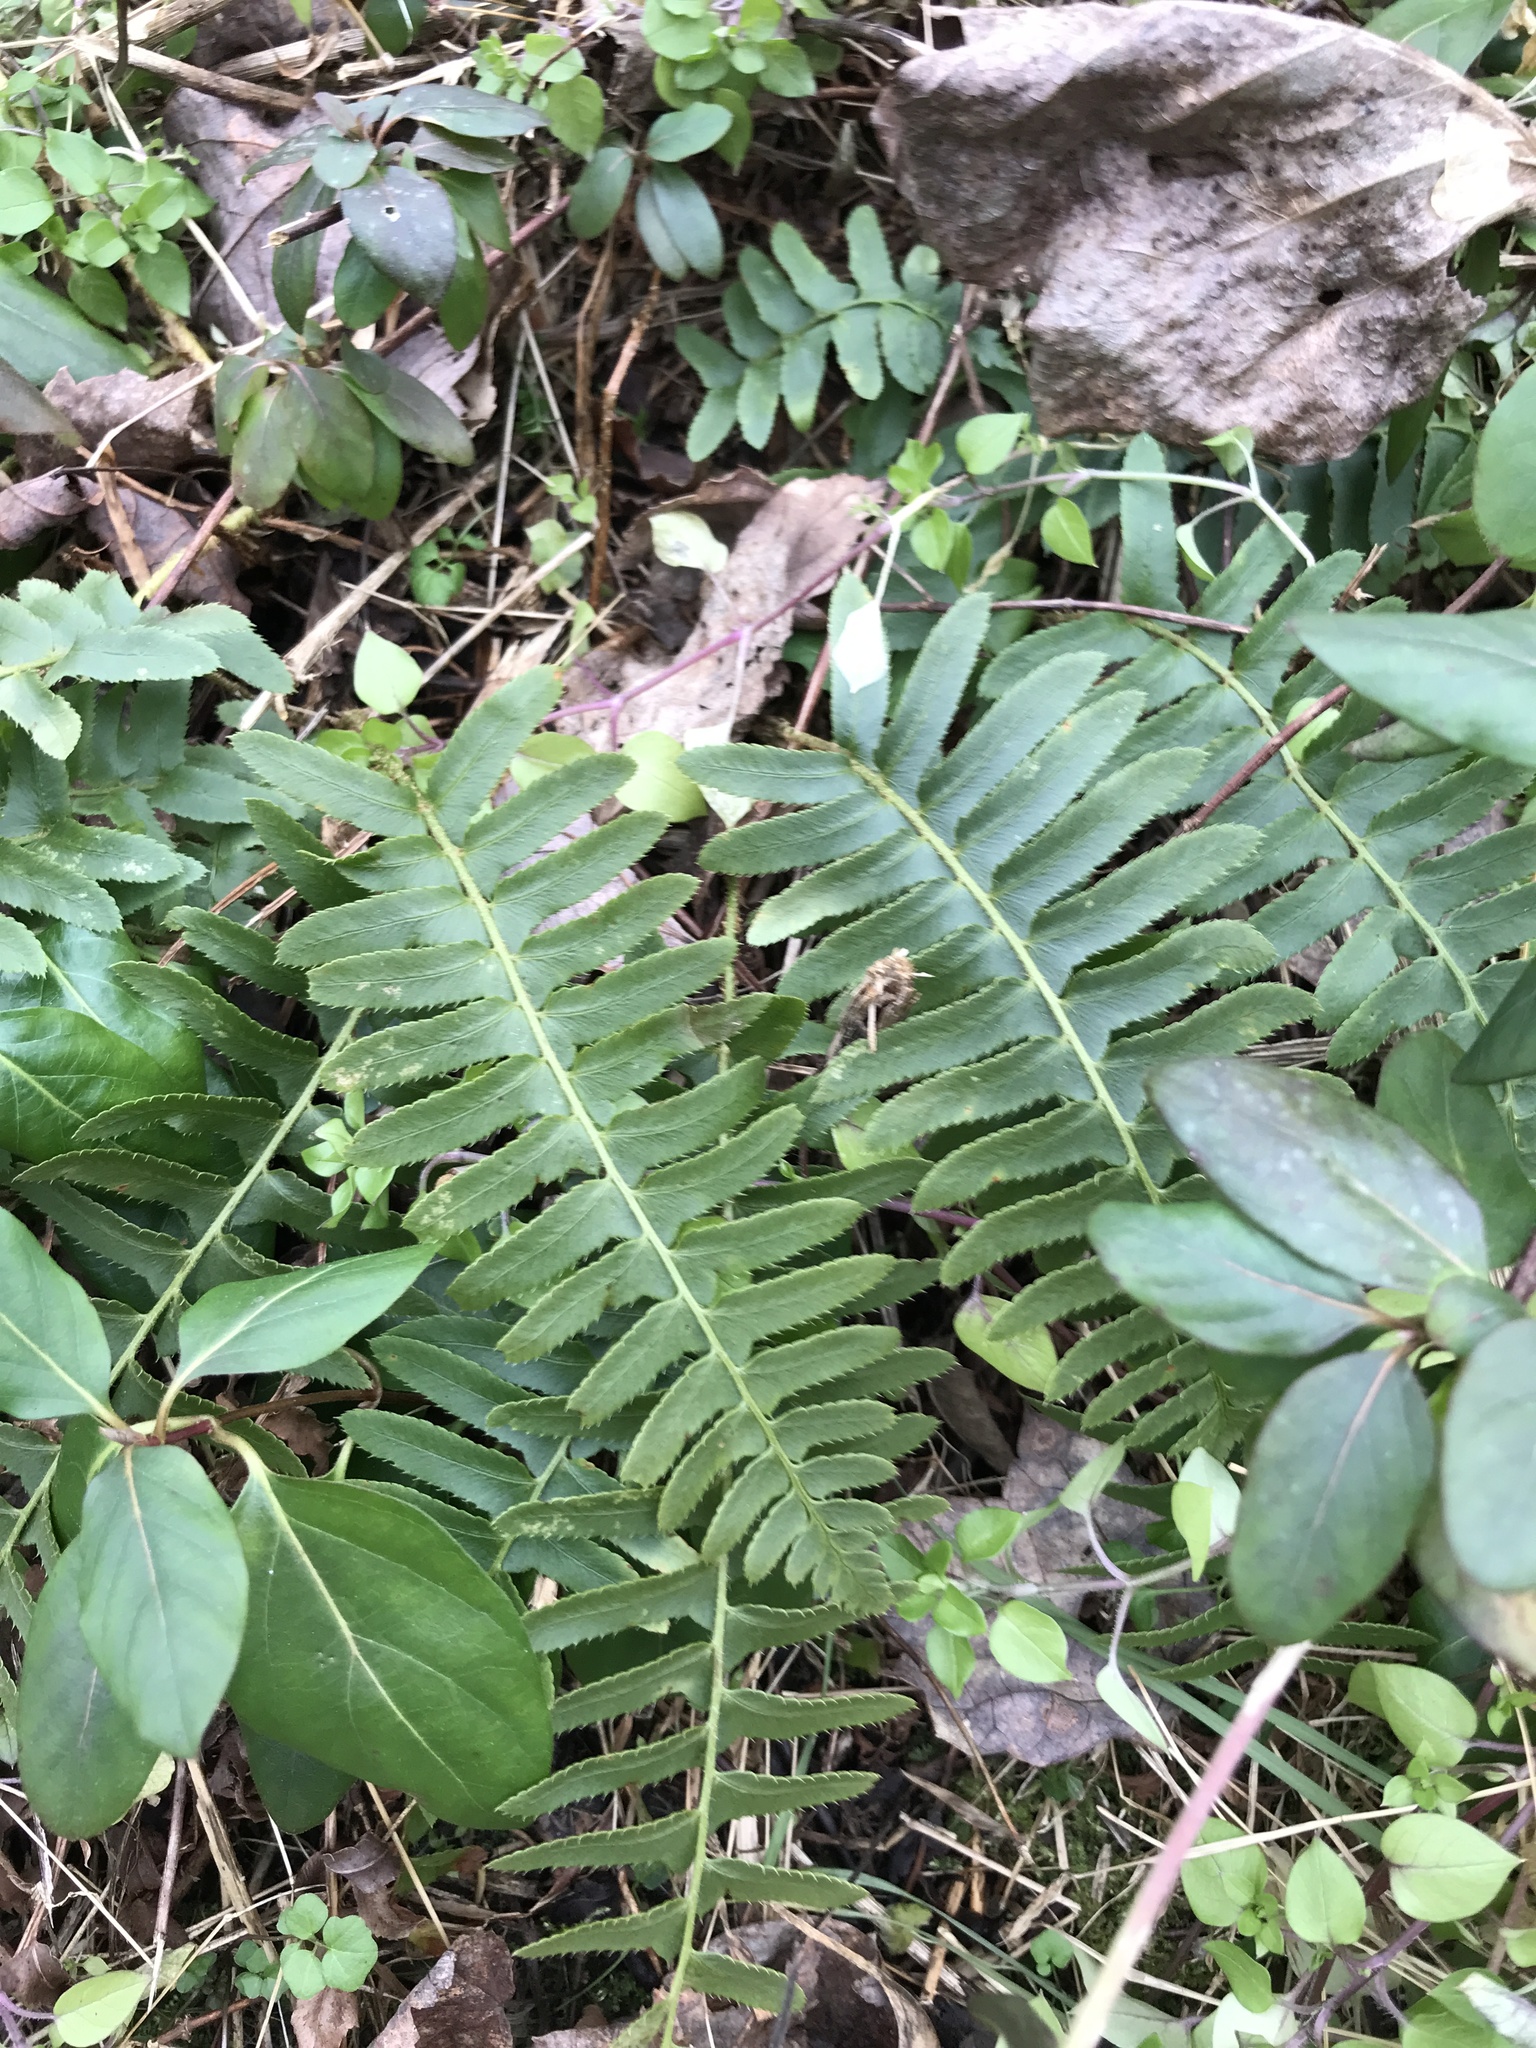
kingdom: Plantae
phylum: Tracheophyta
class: Polypodiopsida
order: Polypodiales
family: Dryopteridaceae
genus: Polystichum
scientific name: Polystichum acrostichoides
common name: Christmas fern
